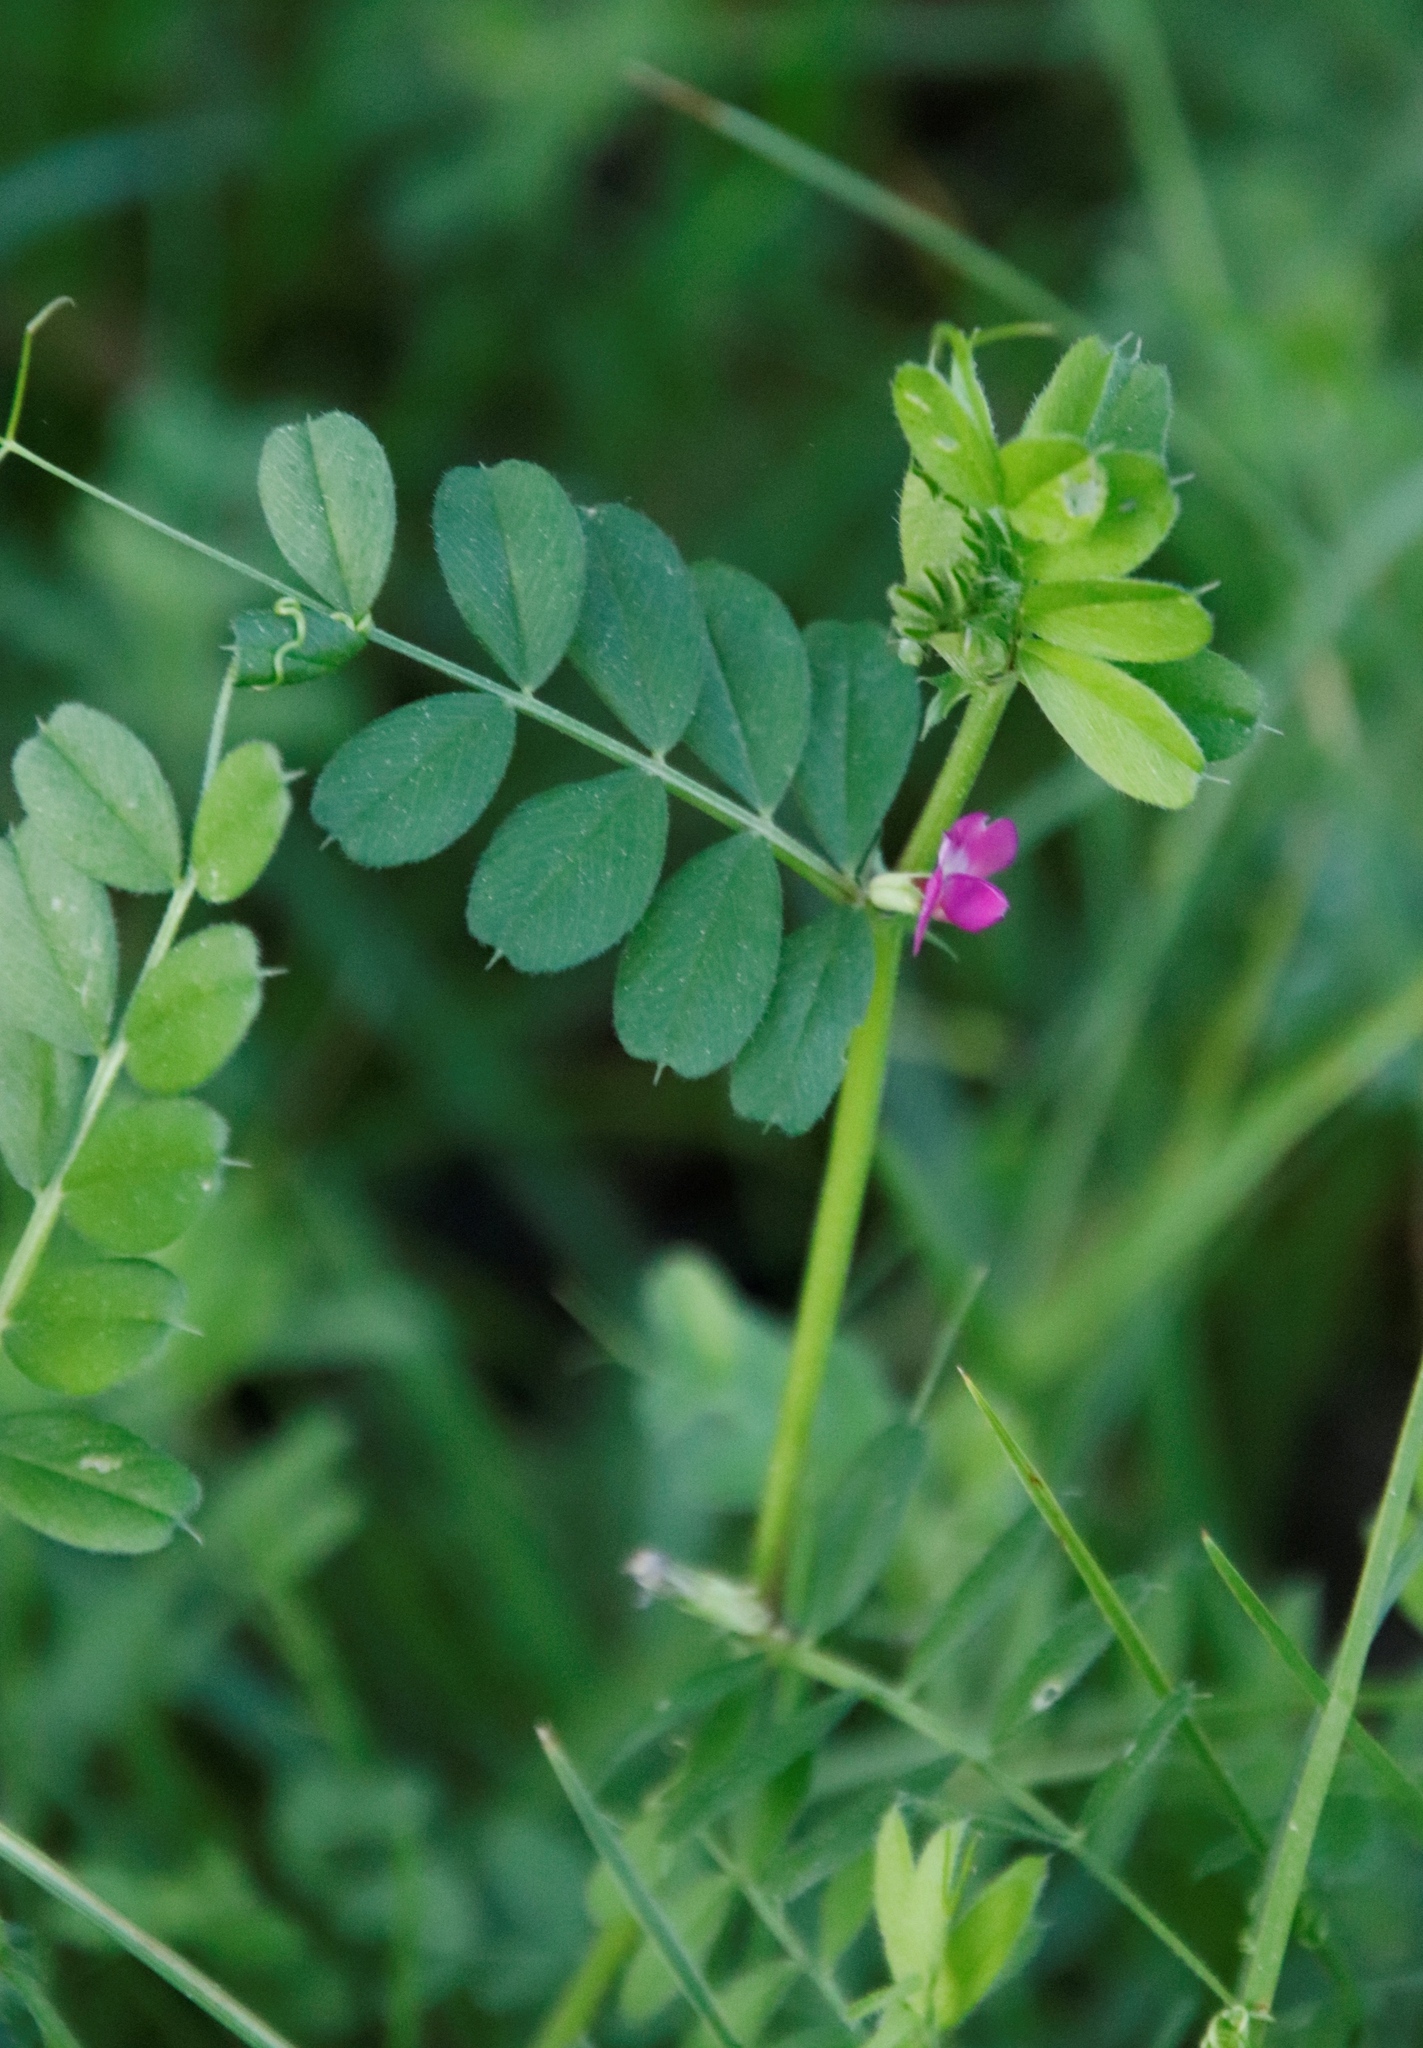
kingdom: Plantae
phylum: Tracheophyta
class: Magnoliopsida
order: Fabales
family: Fabaceae
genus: Vicia
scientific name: Vicia sativa
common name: Garden vetch
